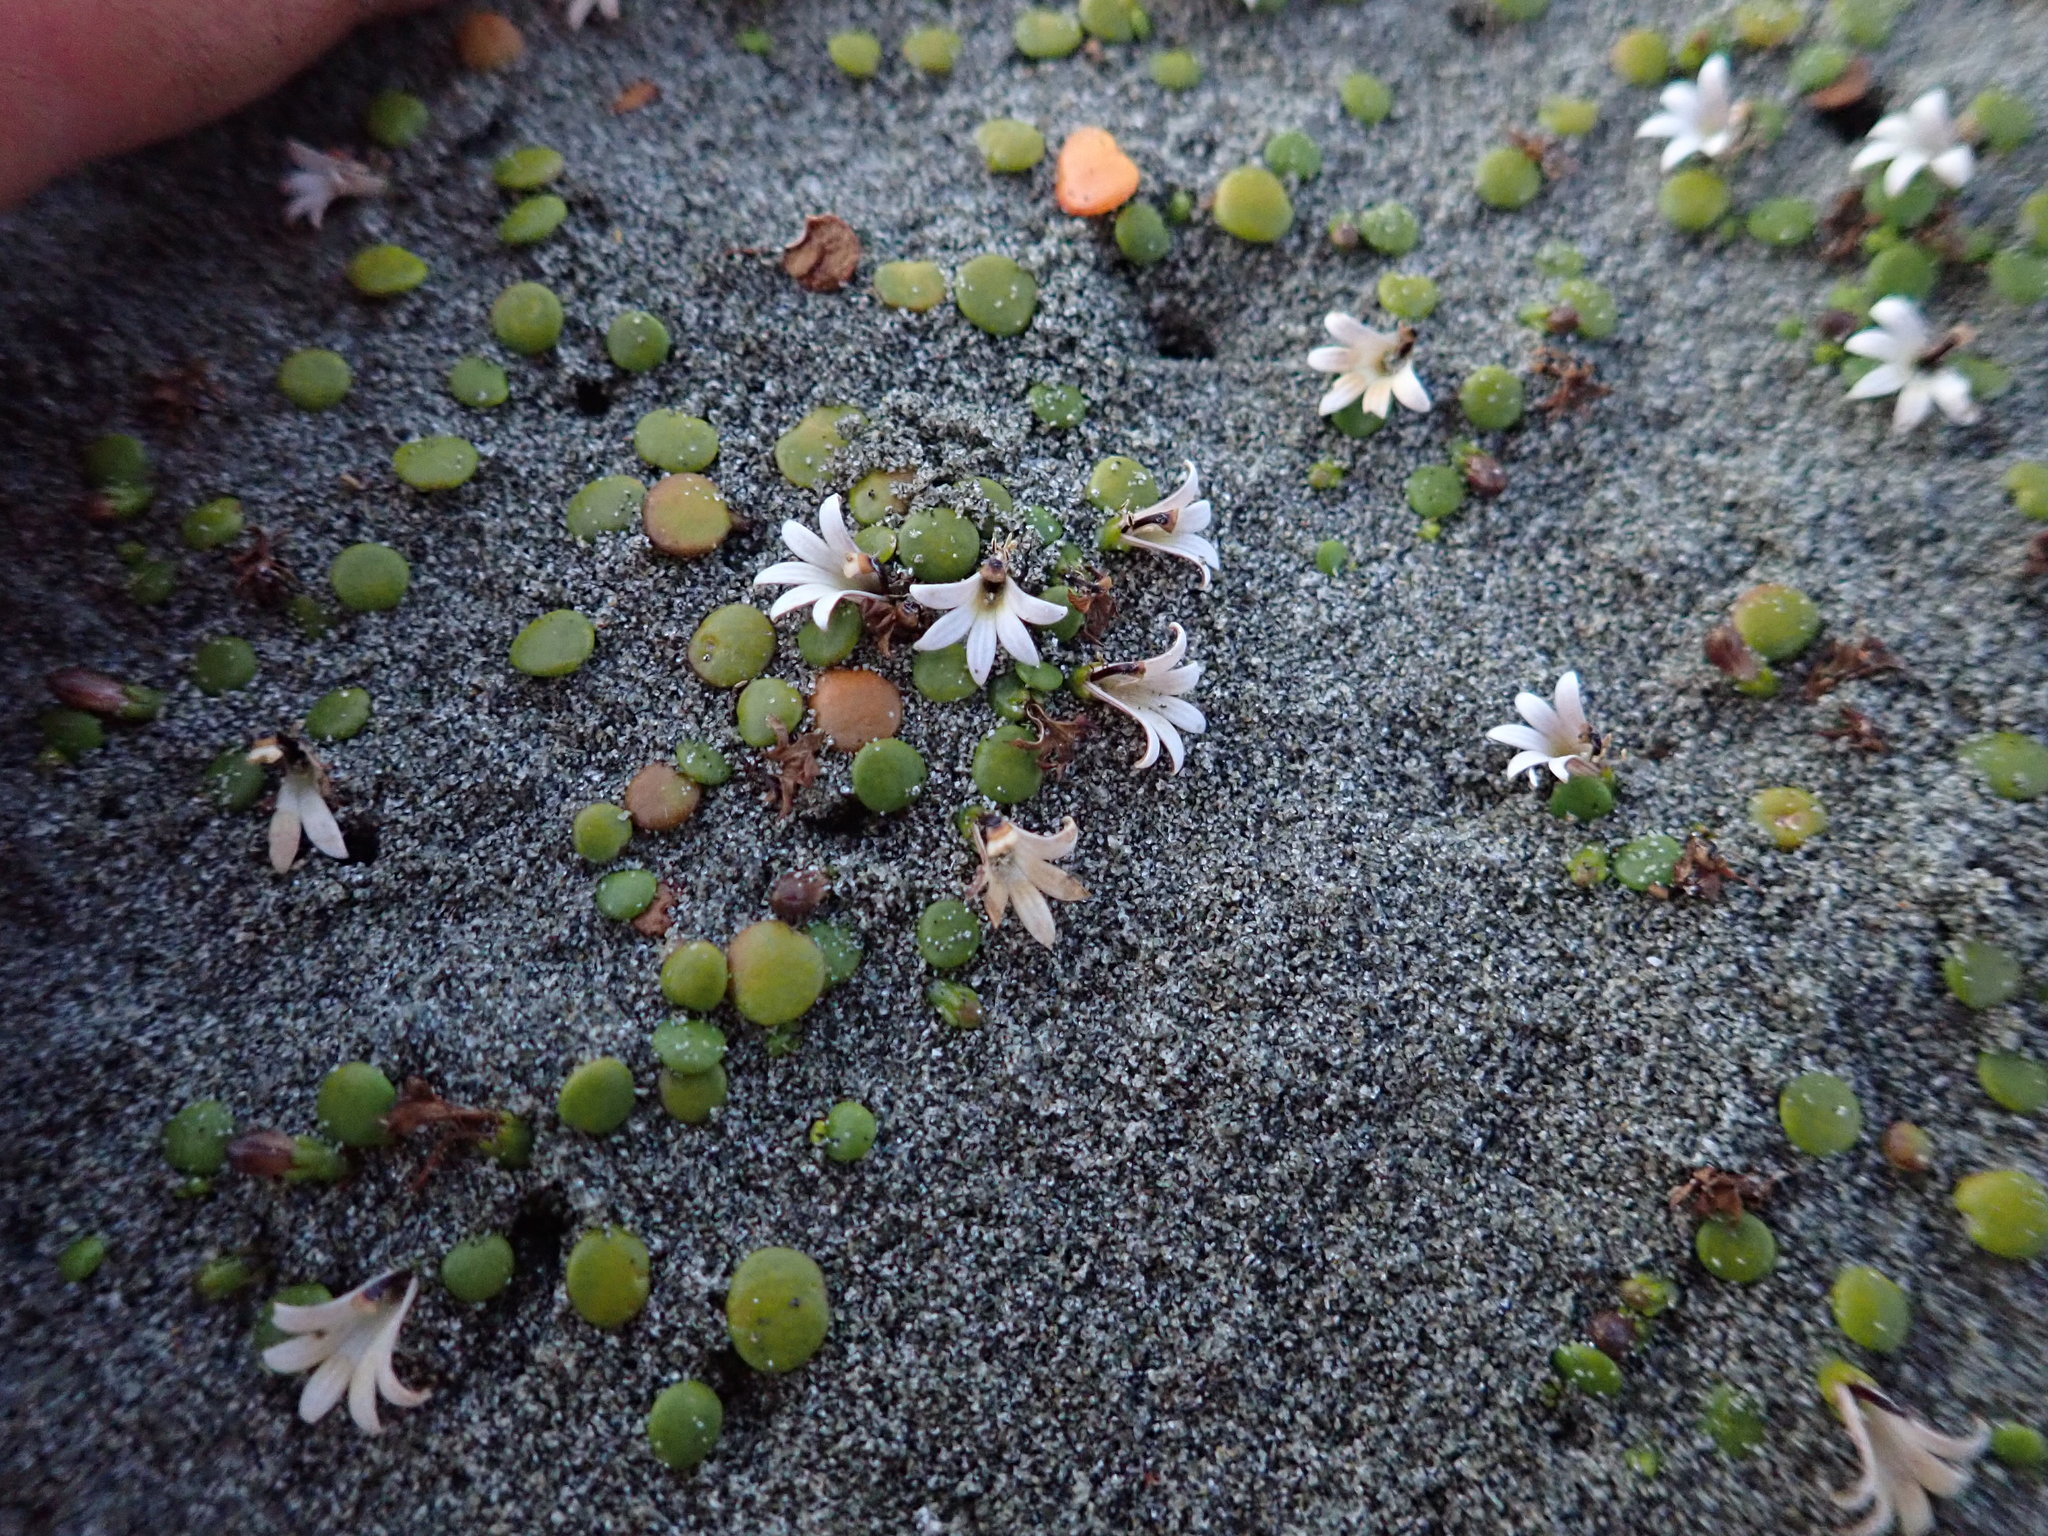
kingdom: Plantae
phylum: Tracheophyta
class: Magnoliopsida
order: Asterales
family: Goodeniaceae
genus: Goodenia
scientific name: Goodenia heenanii
